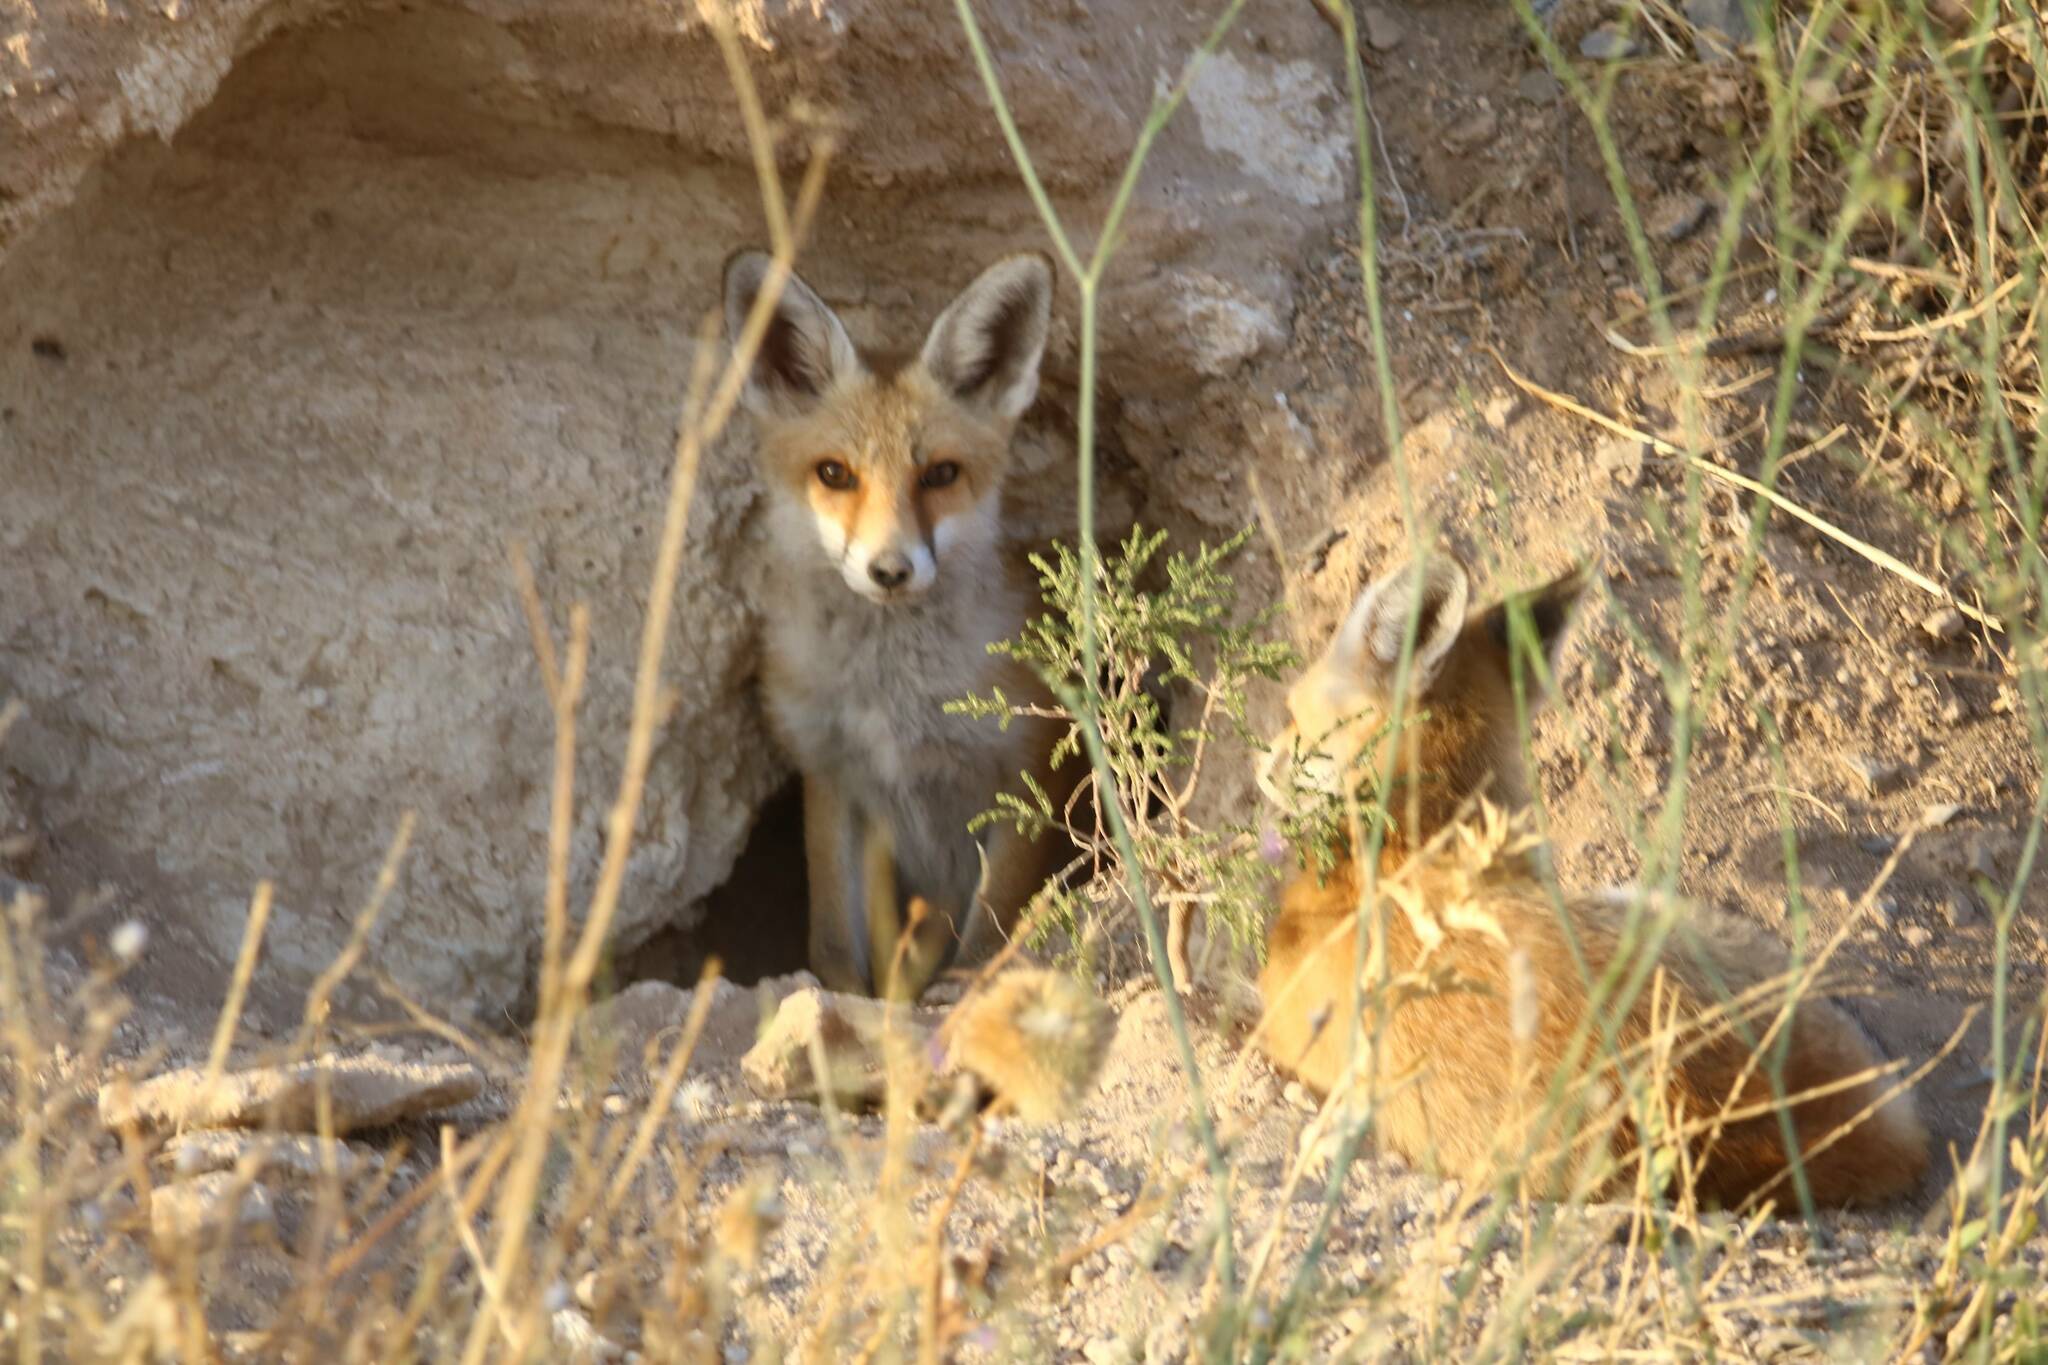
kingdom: Animalia
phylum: Chordata
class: Mammalia
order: Carnivora
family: Canidae
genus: Vulpes
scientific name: Vulpes vulpes
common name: Red fox
